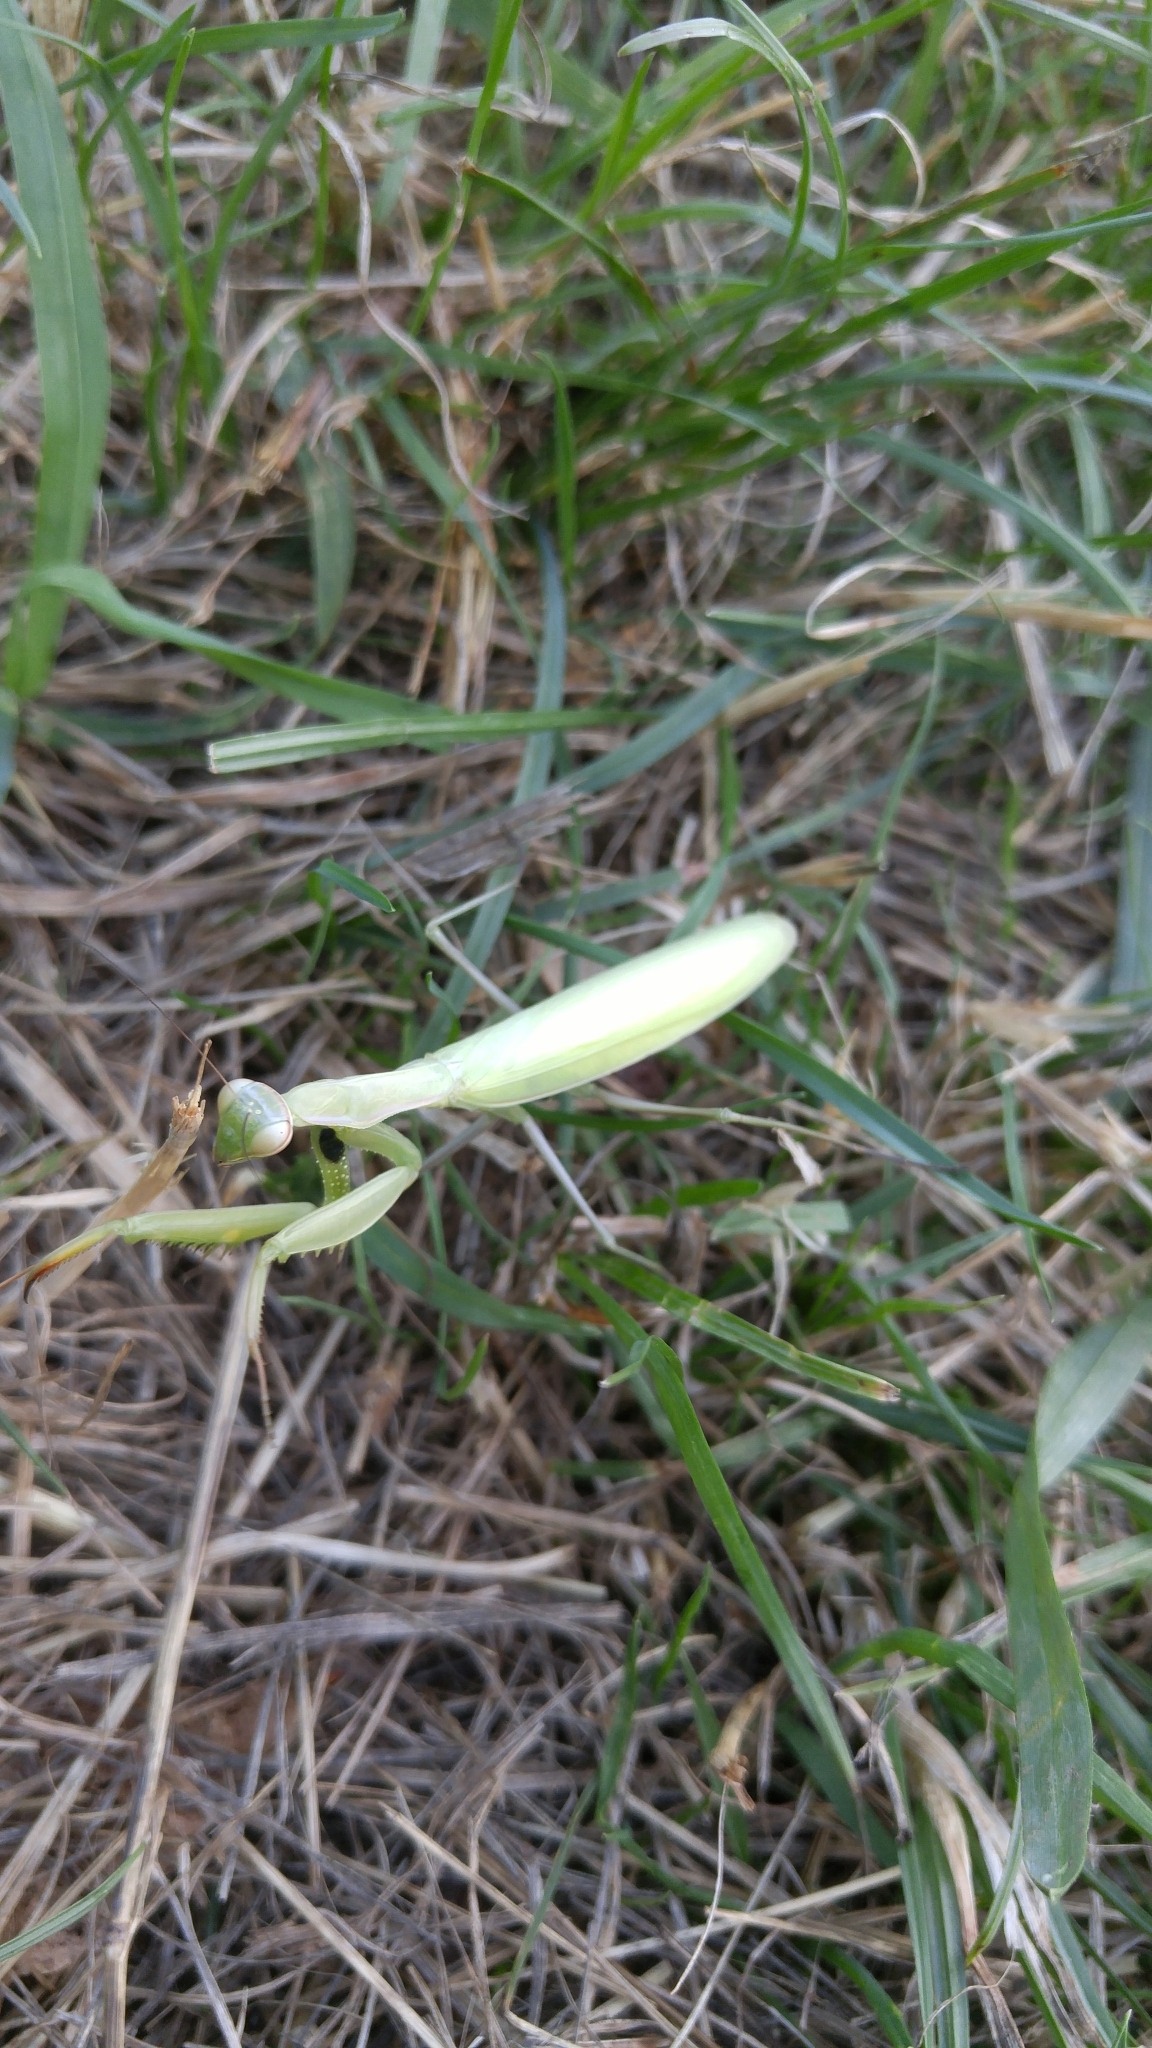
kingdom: Animalia
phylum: Arthropoda
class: Insecta
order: Mantodea
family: Mantidae
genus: Mantis
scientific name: Mantis religiosa
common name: Praying mantis
